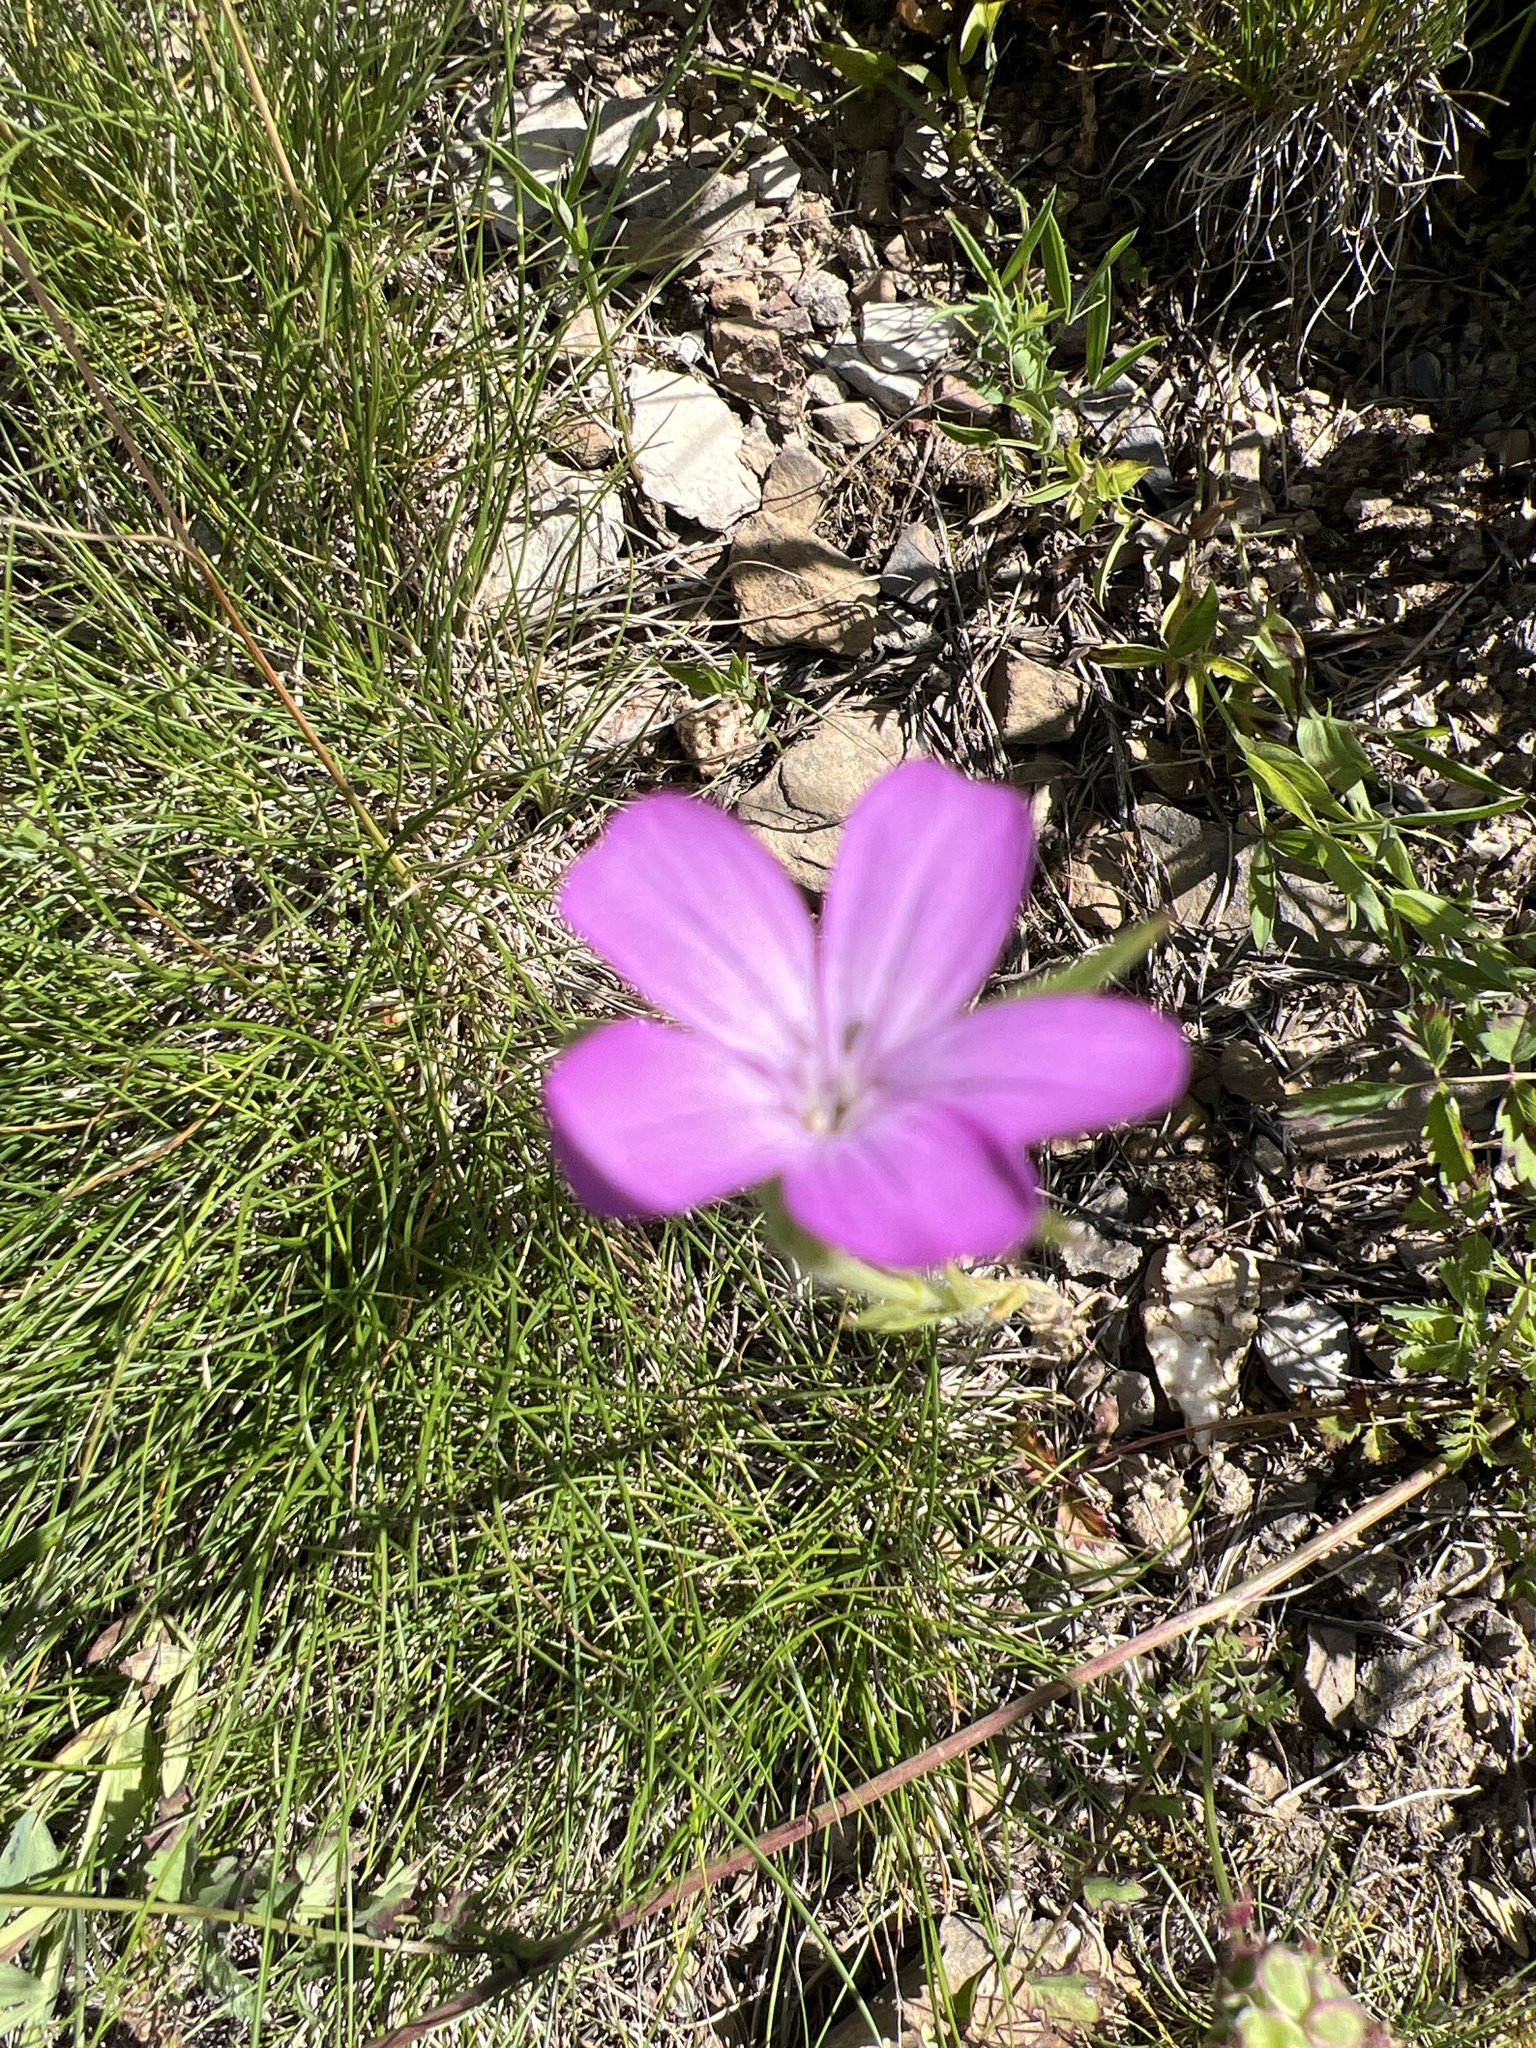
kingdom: Plantae
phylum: Tracheophyta
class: Magnoliopsida
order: Caryophyllales
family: Caryophyllaceae
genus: Agrostemma
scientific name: Agrostemma githago
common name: Common corncockle
